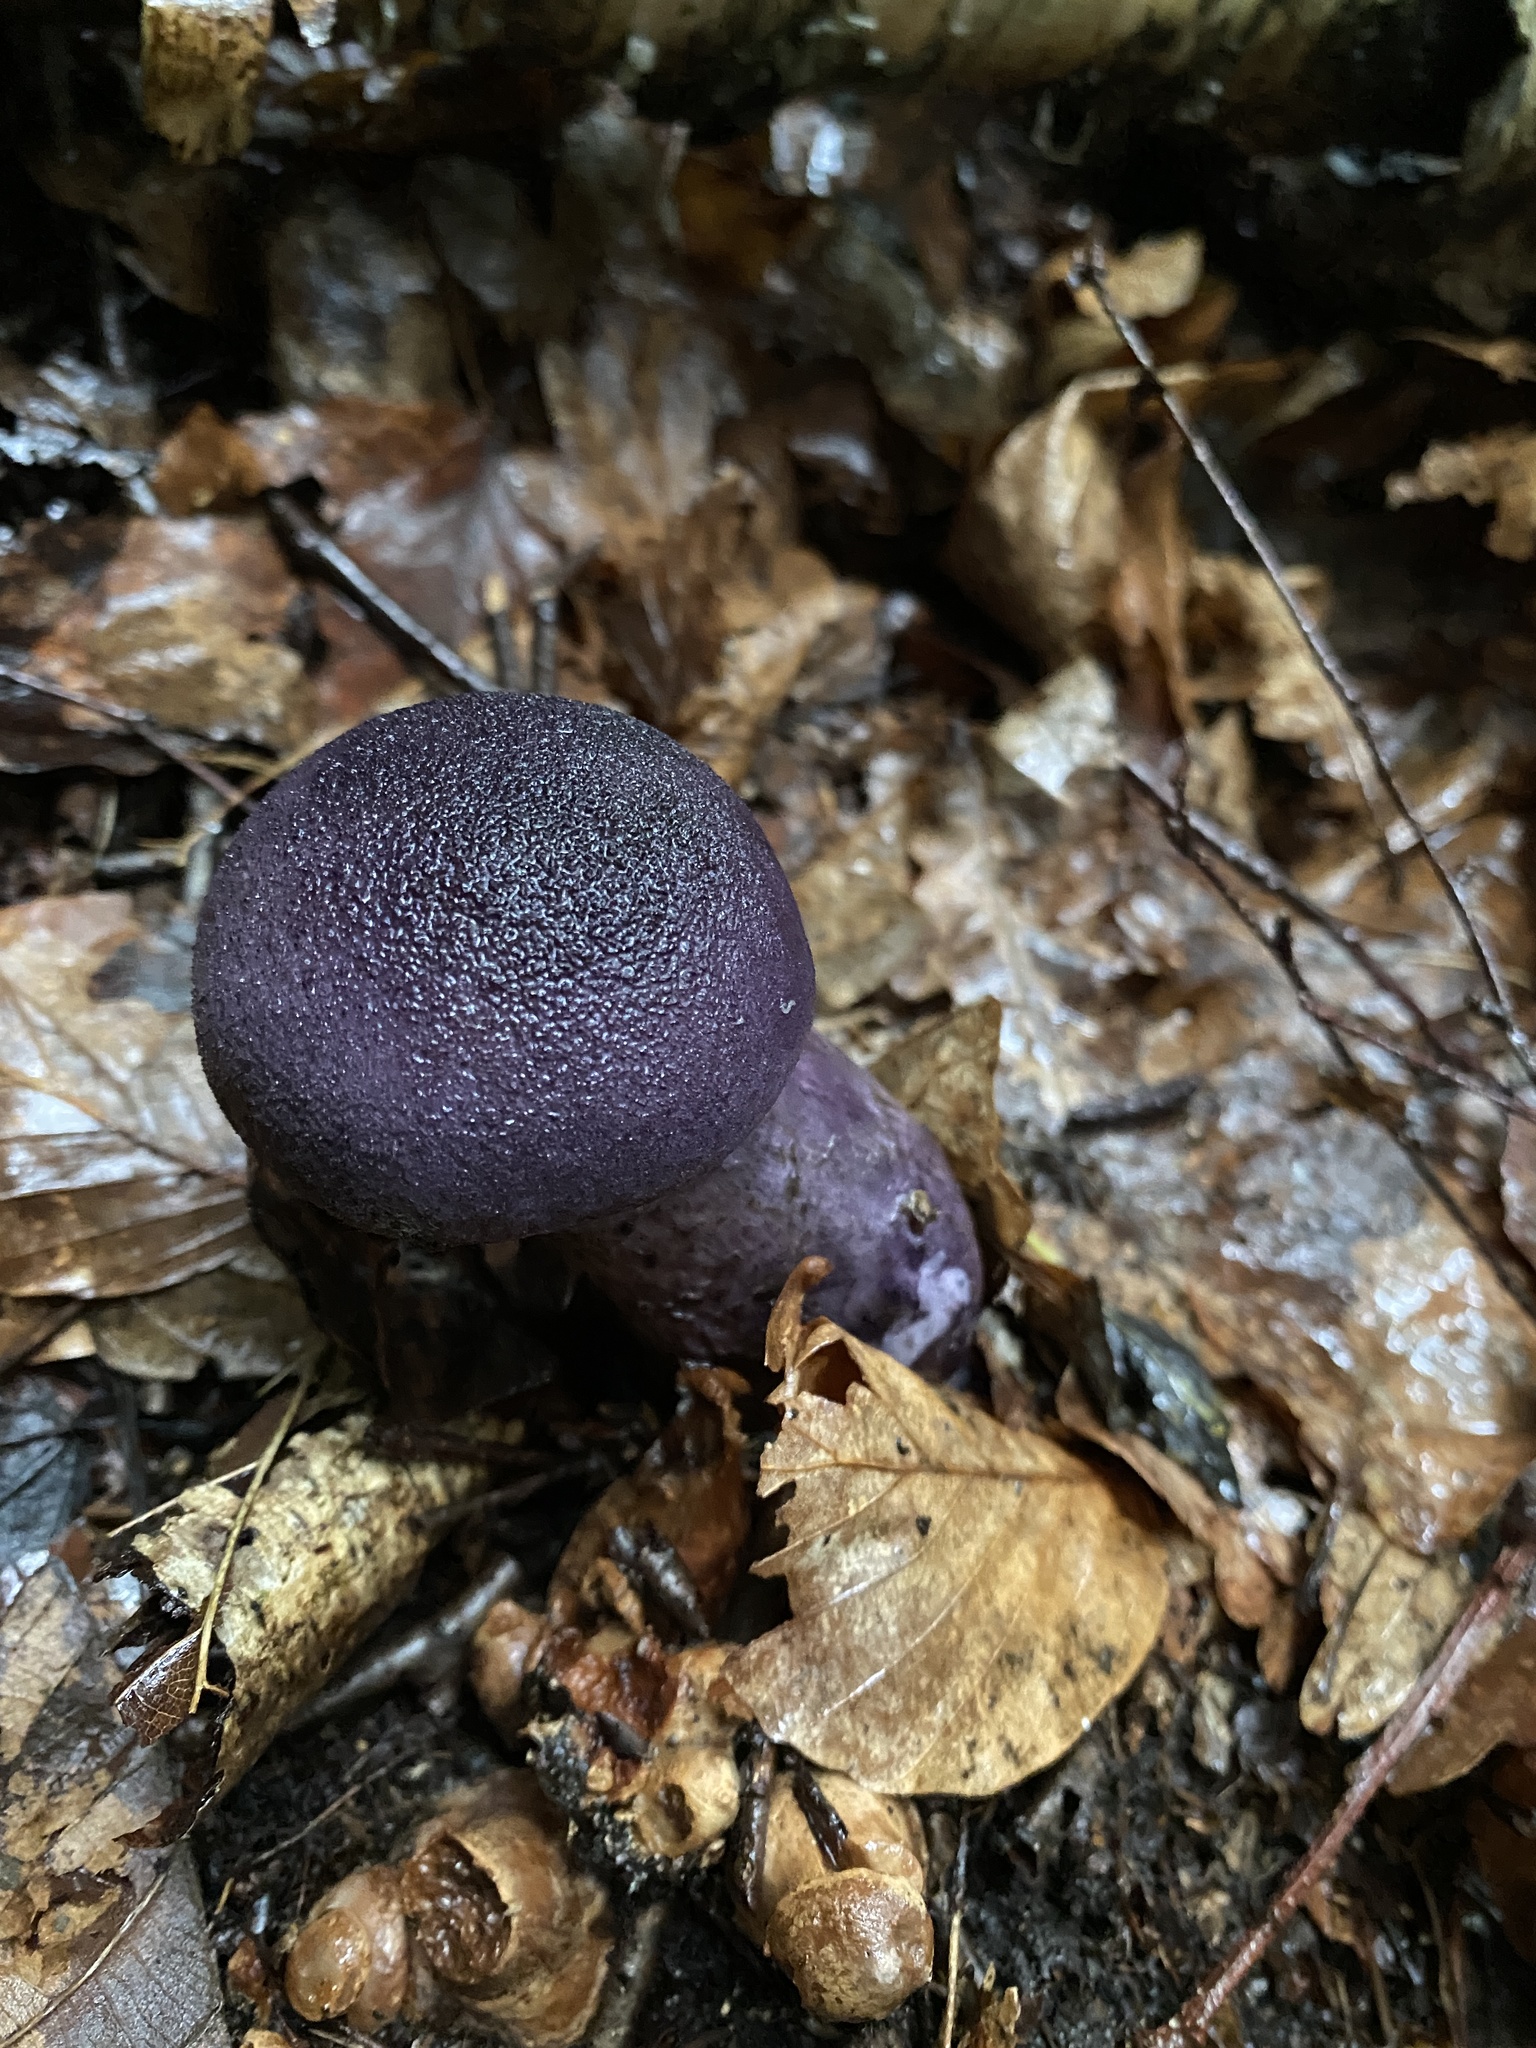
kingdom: Fungi
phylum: Basidiomycota
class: Agaricomycetes
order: Agaricales
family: Cortinariaceae
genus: Cortinarius
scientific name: Cortinarius violaceus
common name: Violet webcap
